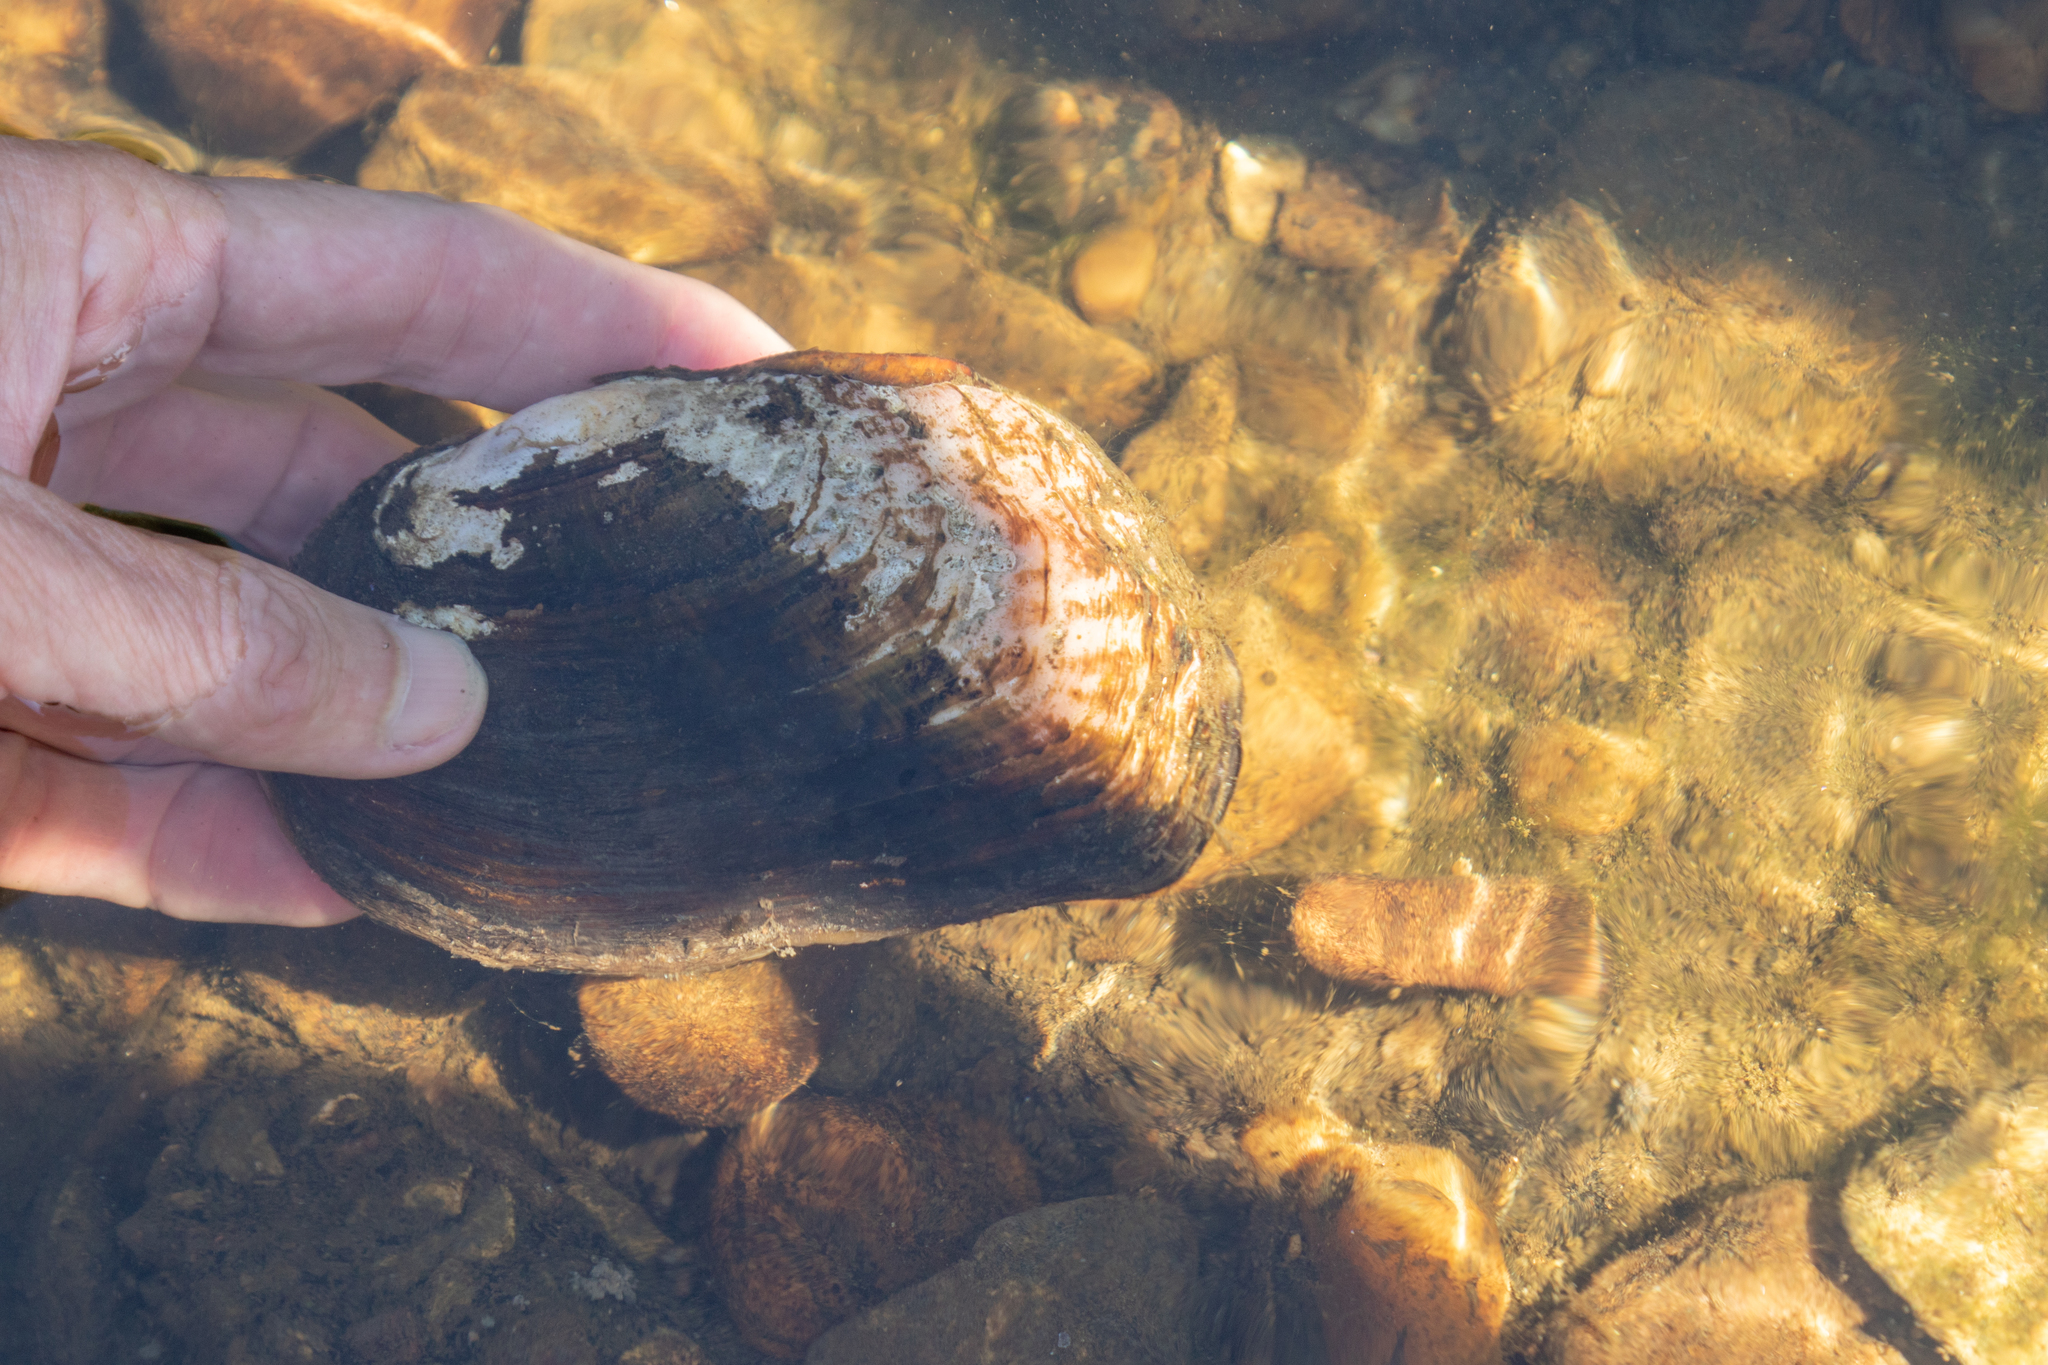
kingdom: Animalia
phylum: Mollusca
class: Bivalvia
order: Unionida
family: Unionidae
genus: Lasmigona
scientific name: Lasmigona costata
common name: Flutedshell
